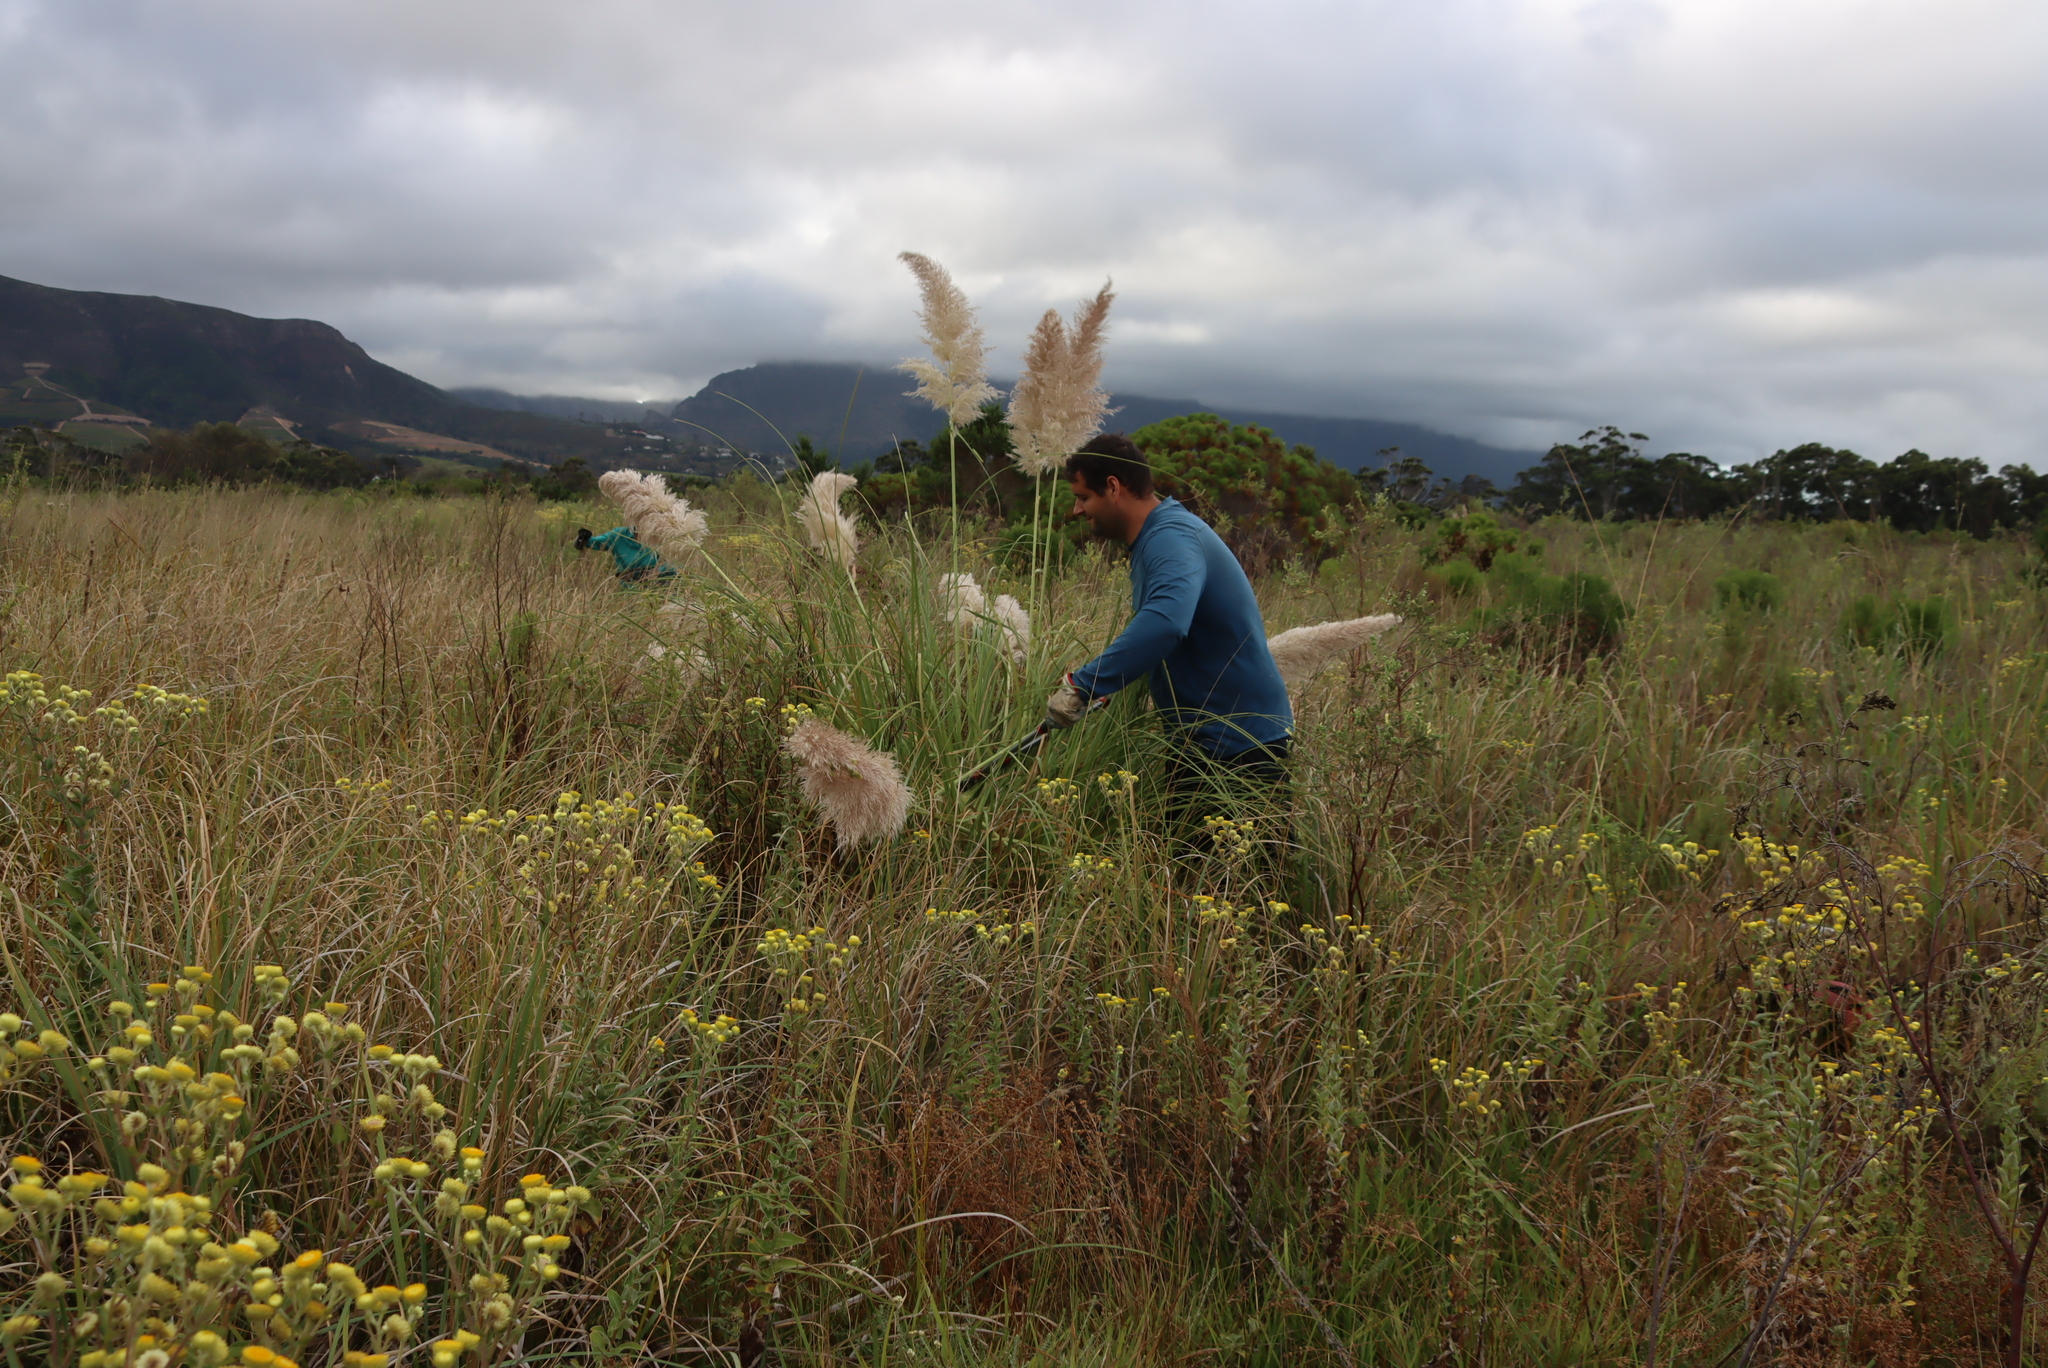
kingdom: Plantae
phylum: Tracheophyta
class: Liliopsida
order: Poales
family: Poaceae
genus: Cortaderia
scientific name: Cortaderia selloana
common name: Uruguayan pampas grass
